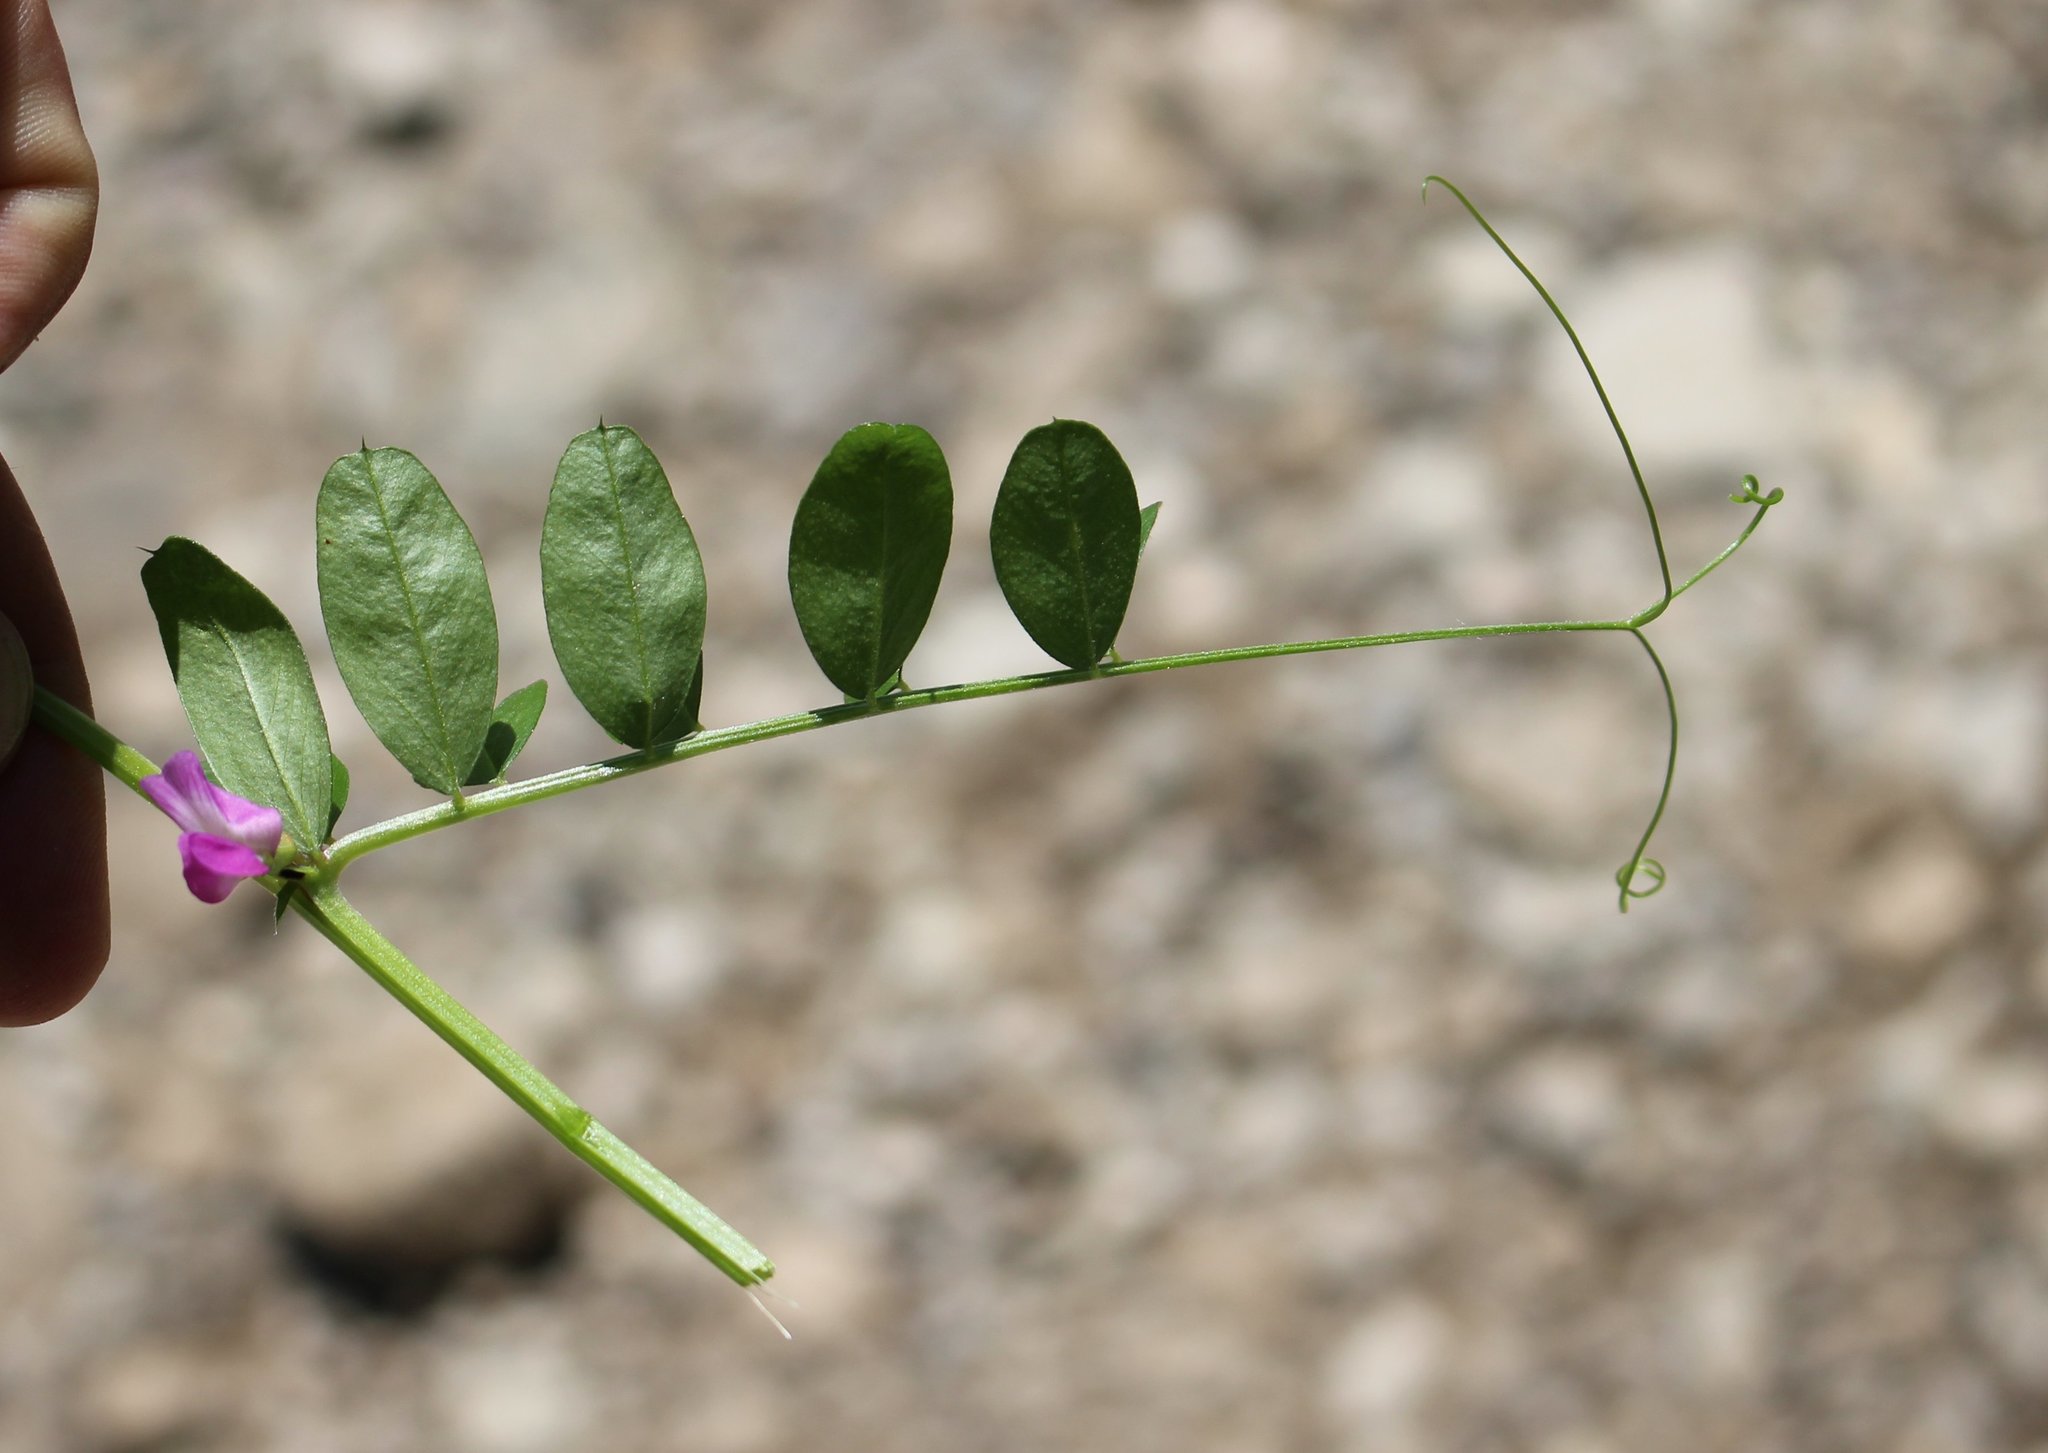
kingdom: Plantae
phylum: Tracheophyta
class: Magnoliopsida
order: Fabales
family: Fabaceae
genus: Vicia
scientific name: Vicia sativa
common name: Garden vetch
